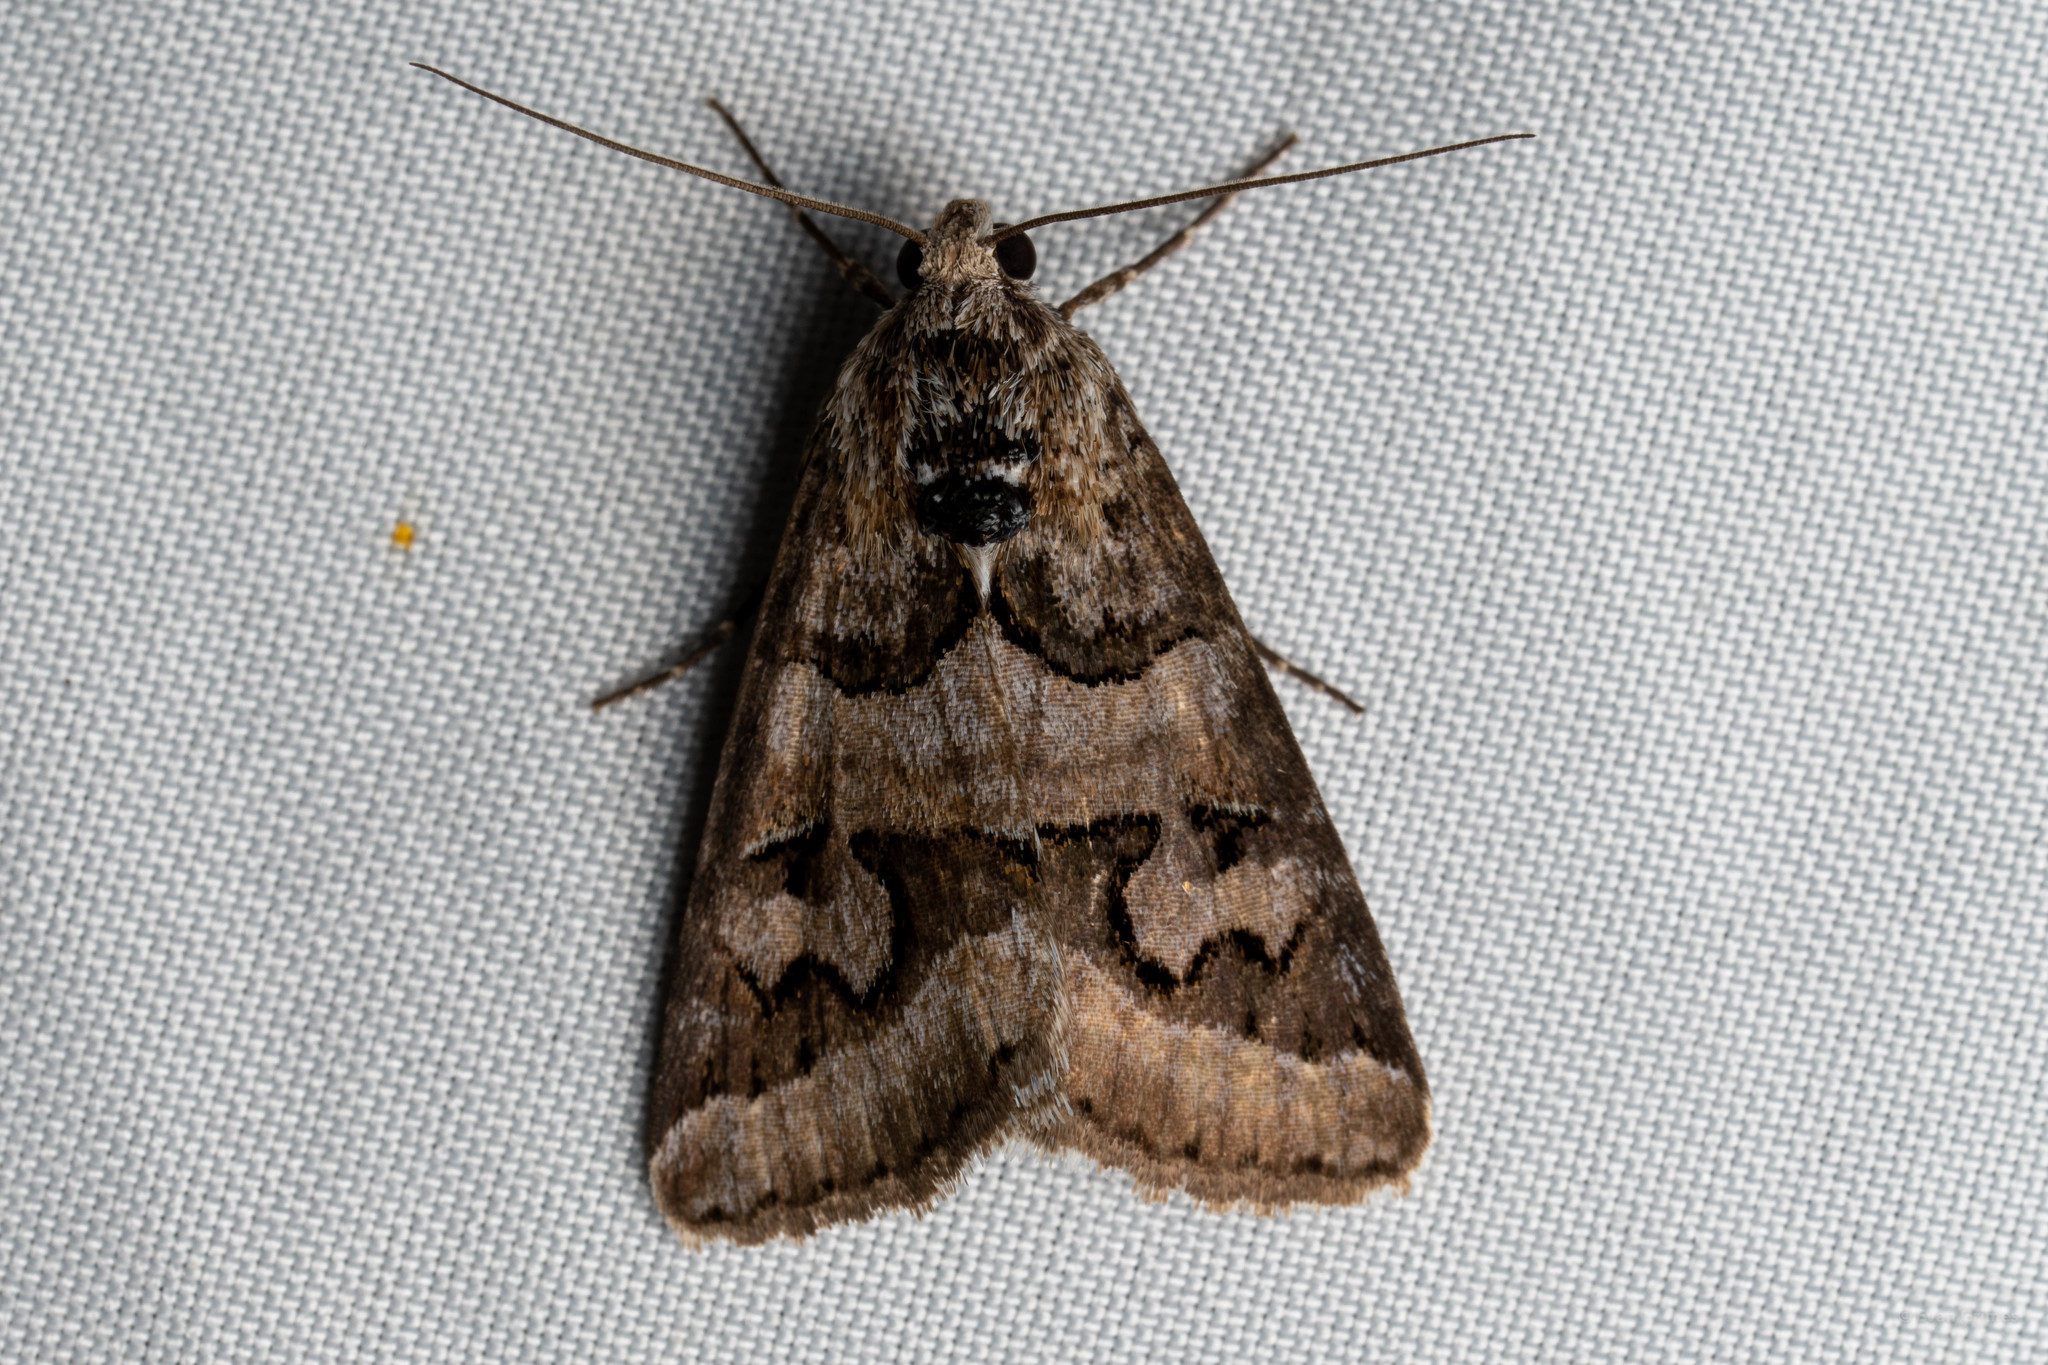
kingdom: Animalia
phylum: Arthropoda
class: Insecta
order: Lepidoptera
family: Erebidae
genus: Drasteria
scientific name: Drasteria graphica
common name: Coastal graphic
